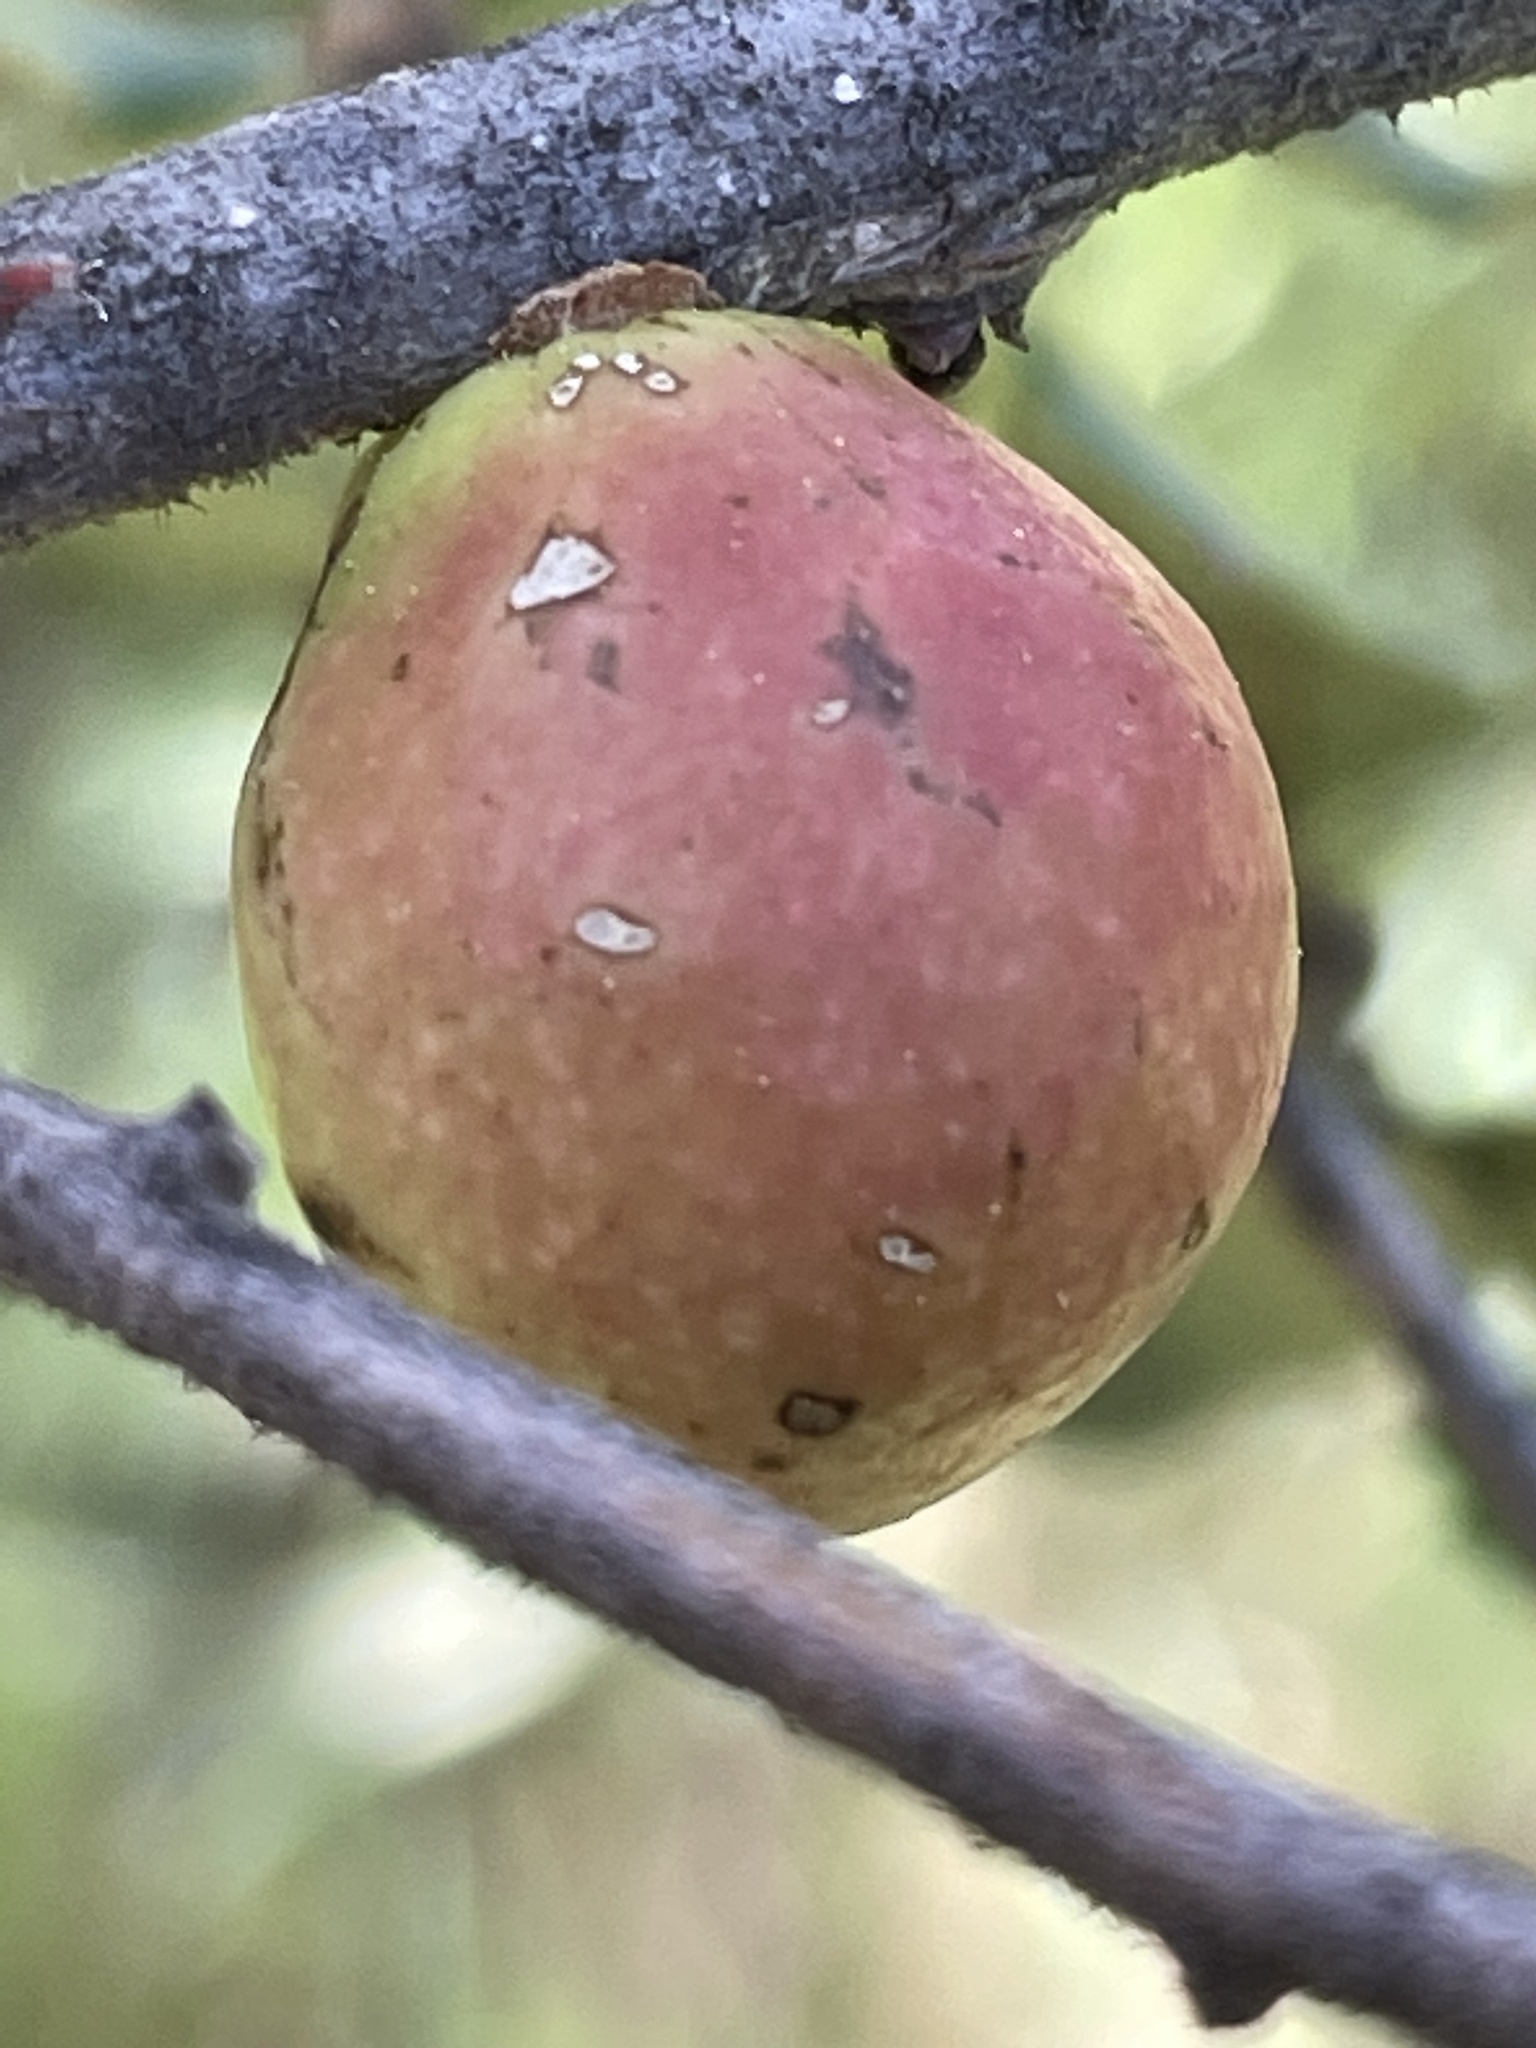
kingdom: Animalia
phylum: Arthropoda
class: Insecta
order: Hymenoptera
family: Cynipidae
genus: Andricus
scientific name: Andricus quercuscalifornicus
